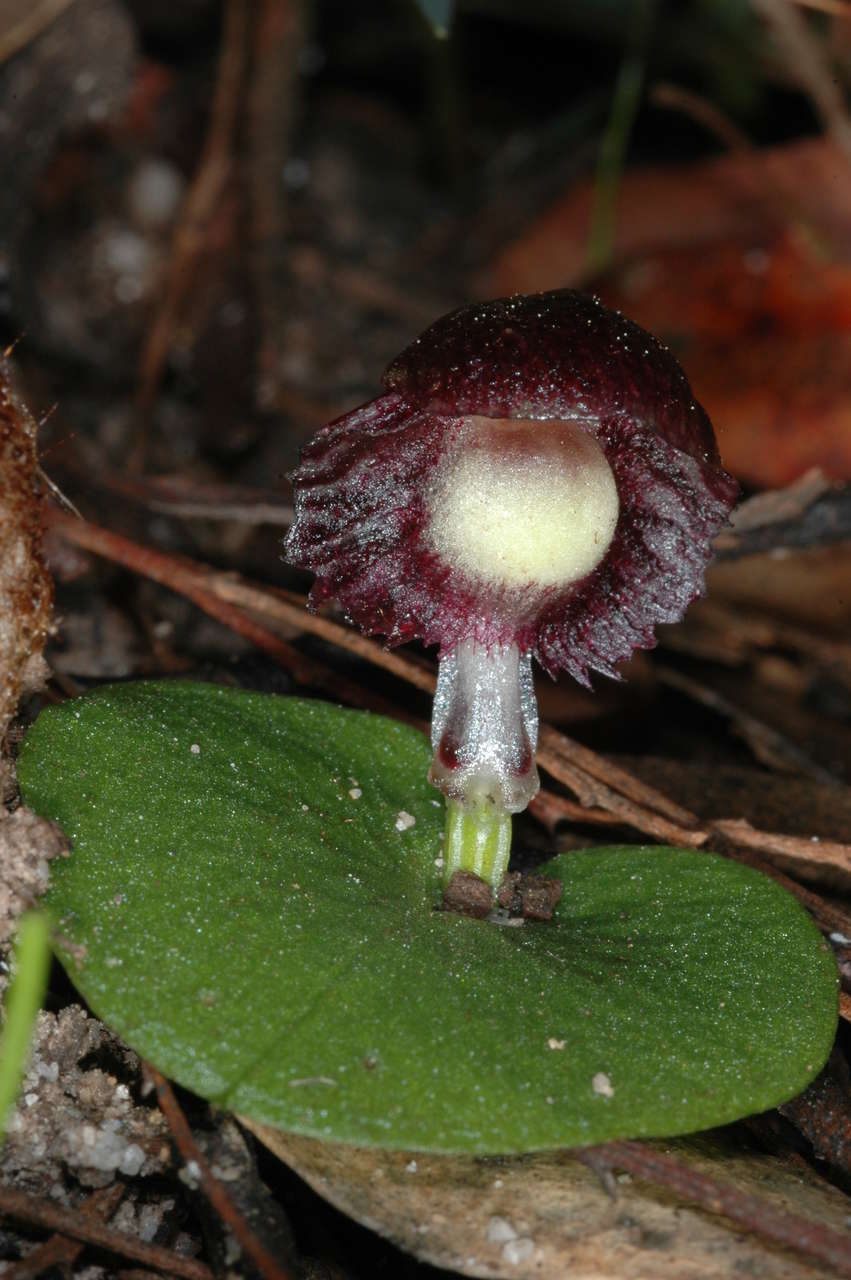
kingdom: Plantae
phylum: Tracheophyta
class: Liliopsida
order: Asparagales
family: Orchidaceae
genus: Corybas
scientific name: Corybas diemenicus
